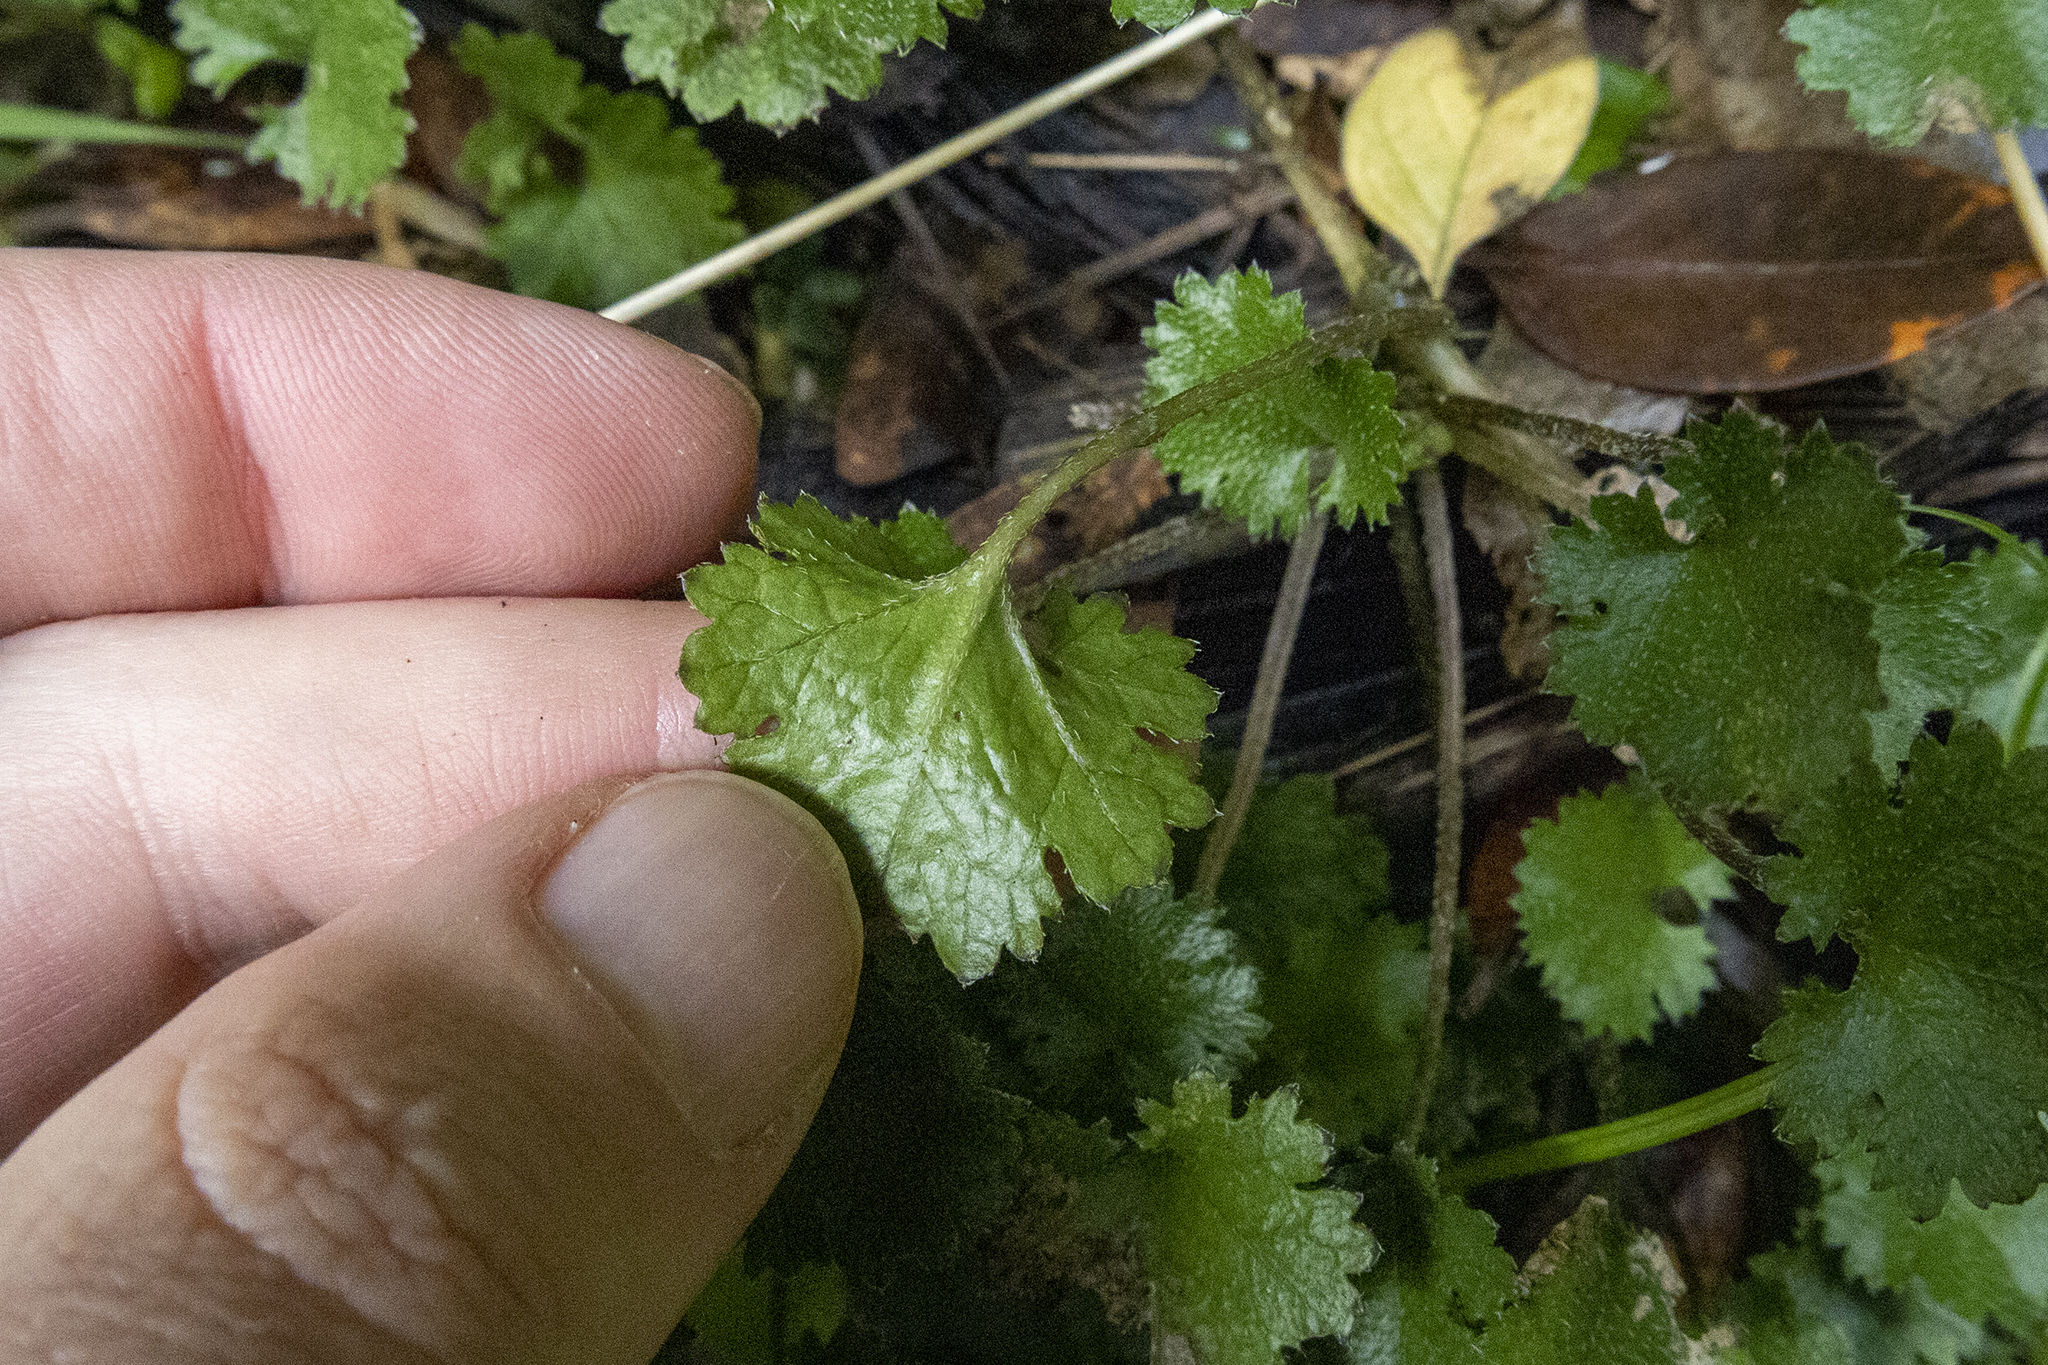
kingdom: Plantae
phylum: Tracheophyta
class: Magnoliopsida
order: Gunnerales
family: Gunneraceae
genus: Gunnera
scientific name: Gunnera monoica
